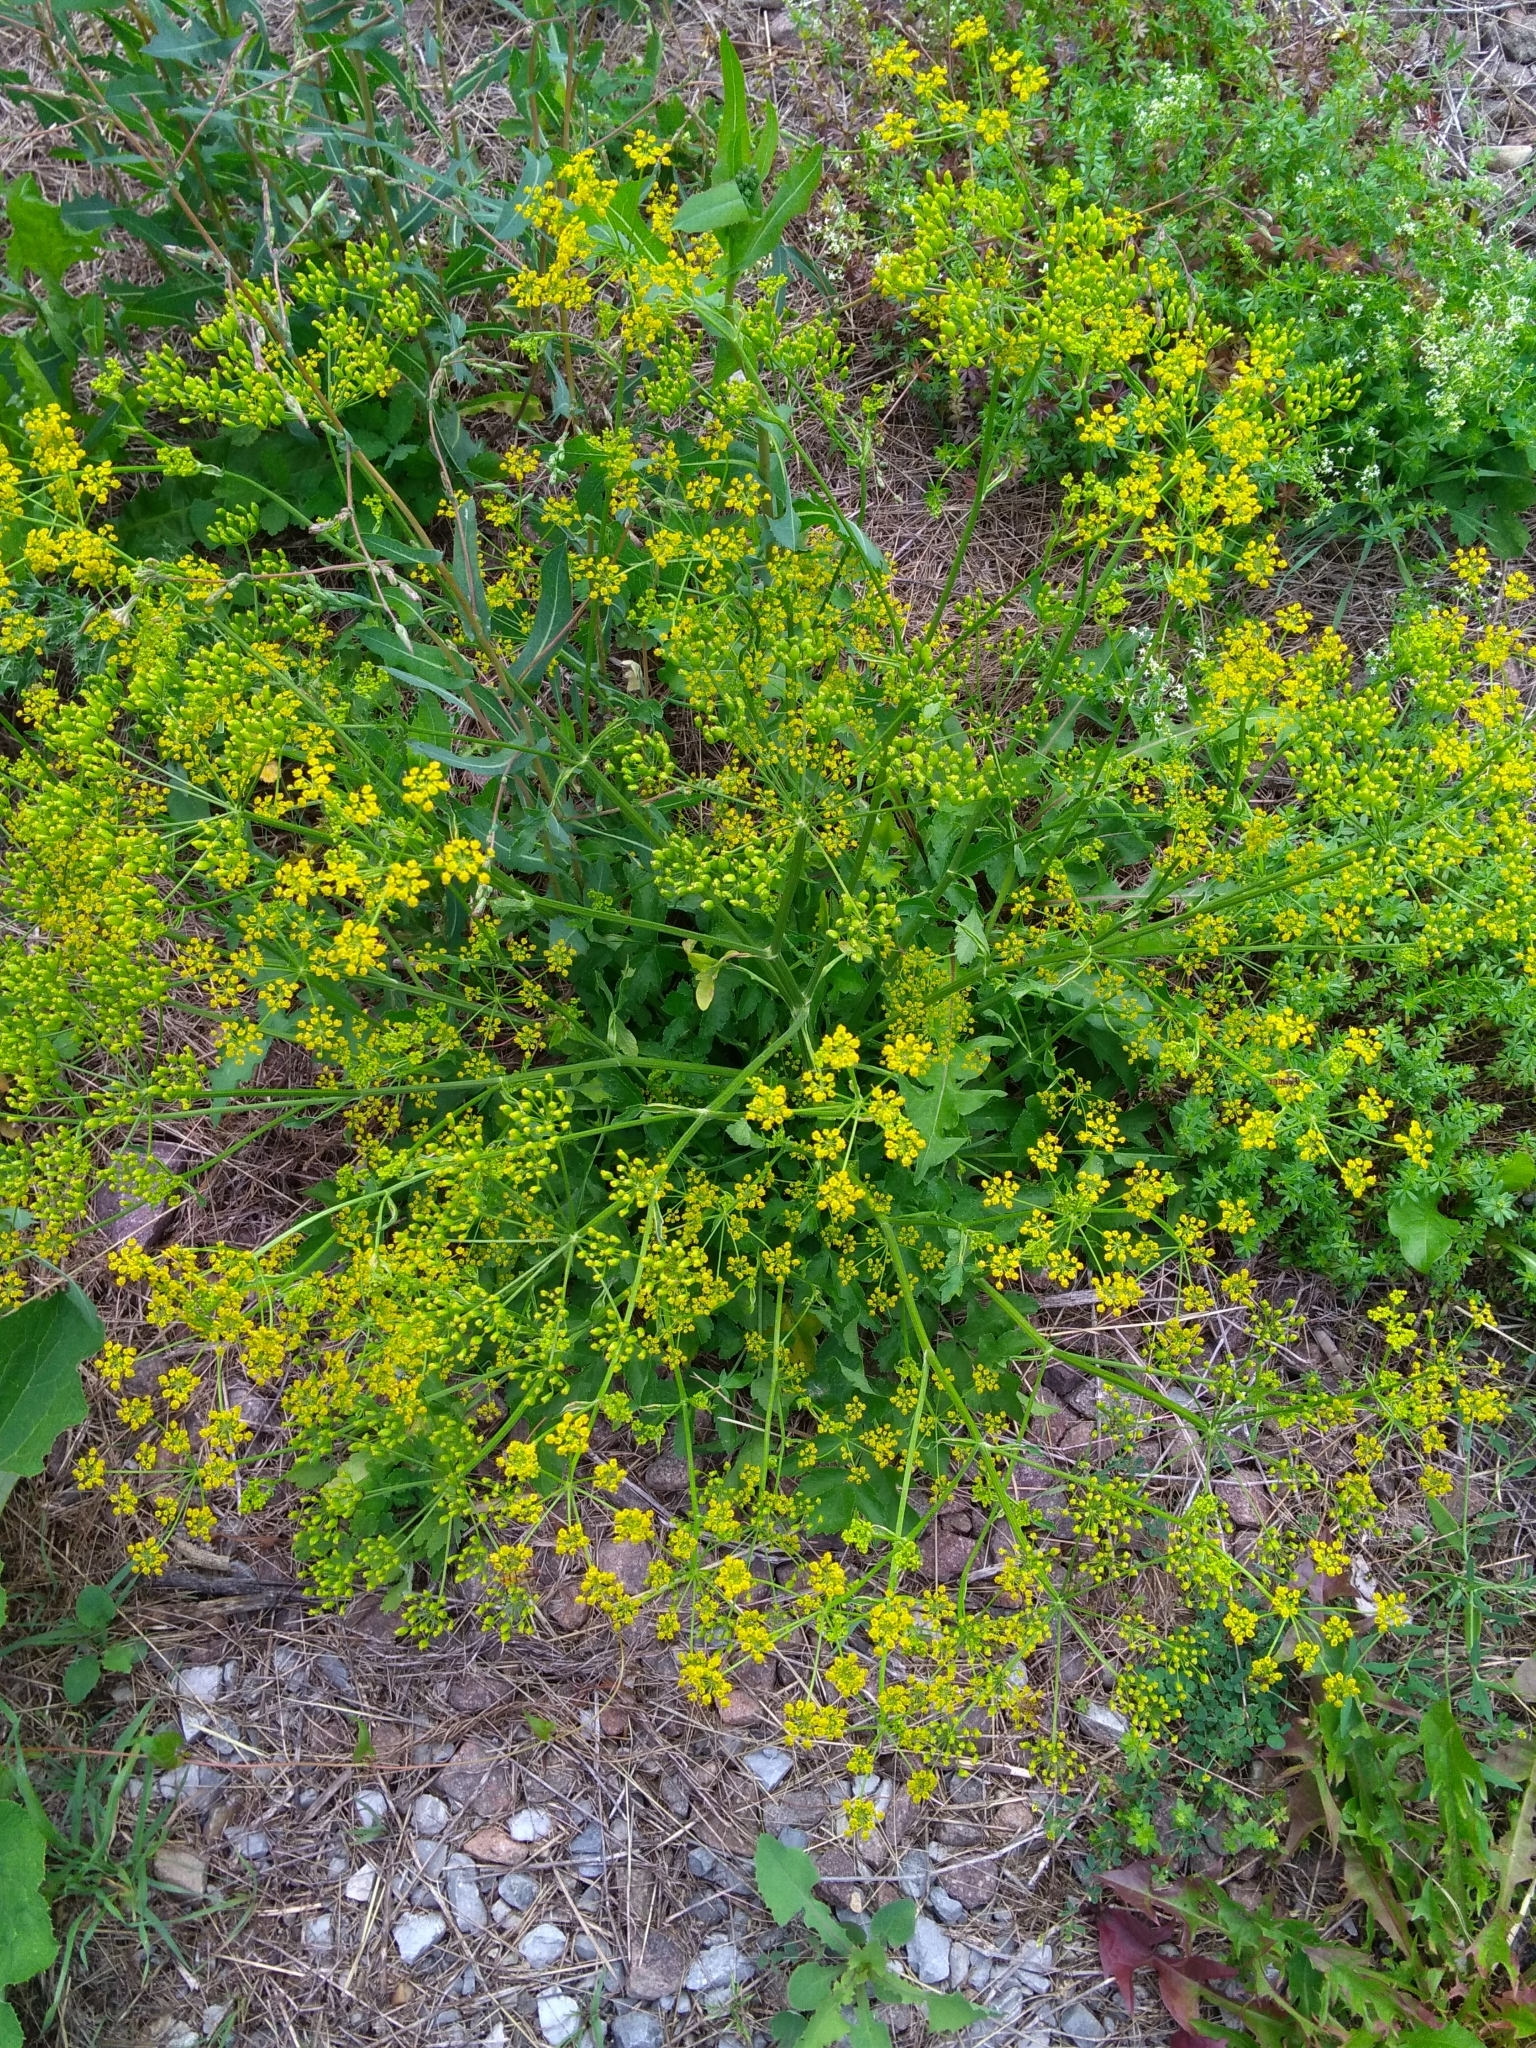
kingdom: Plantae
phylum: Tracheophyta
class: Magnoliopsida
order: Apiales
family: Apiaceae
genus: Pastinaca
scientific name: Pastinaca sativa
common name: Wild parsnip
